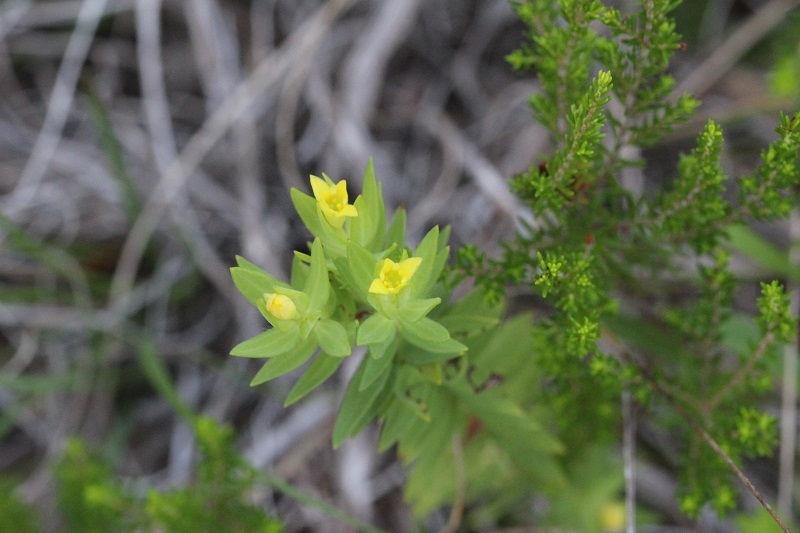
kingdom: Plantae
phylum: Tracheophyta
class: Magnoliopsida
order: Malvales
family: Thymelaeaceae
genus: Gnidia
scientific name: Gnidia juniperifolia
